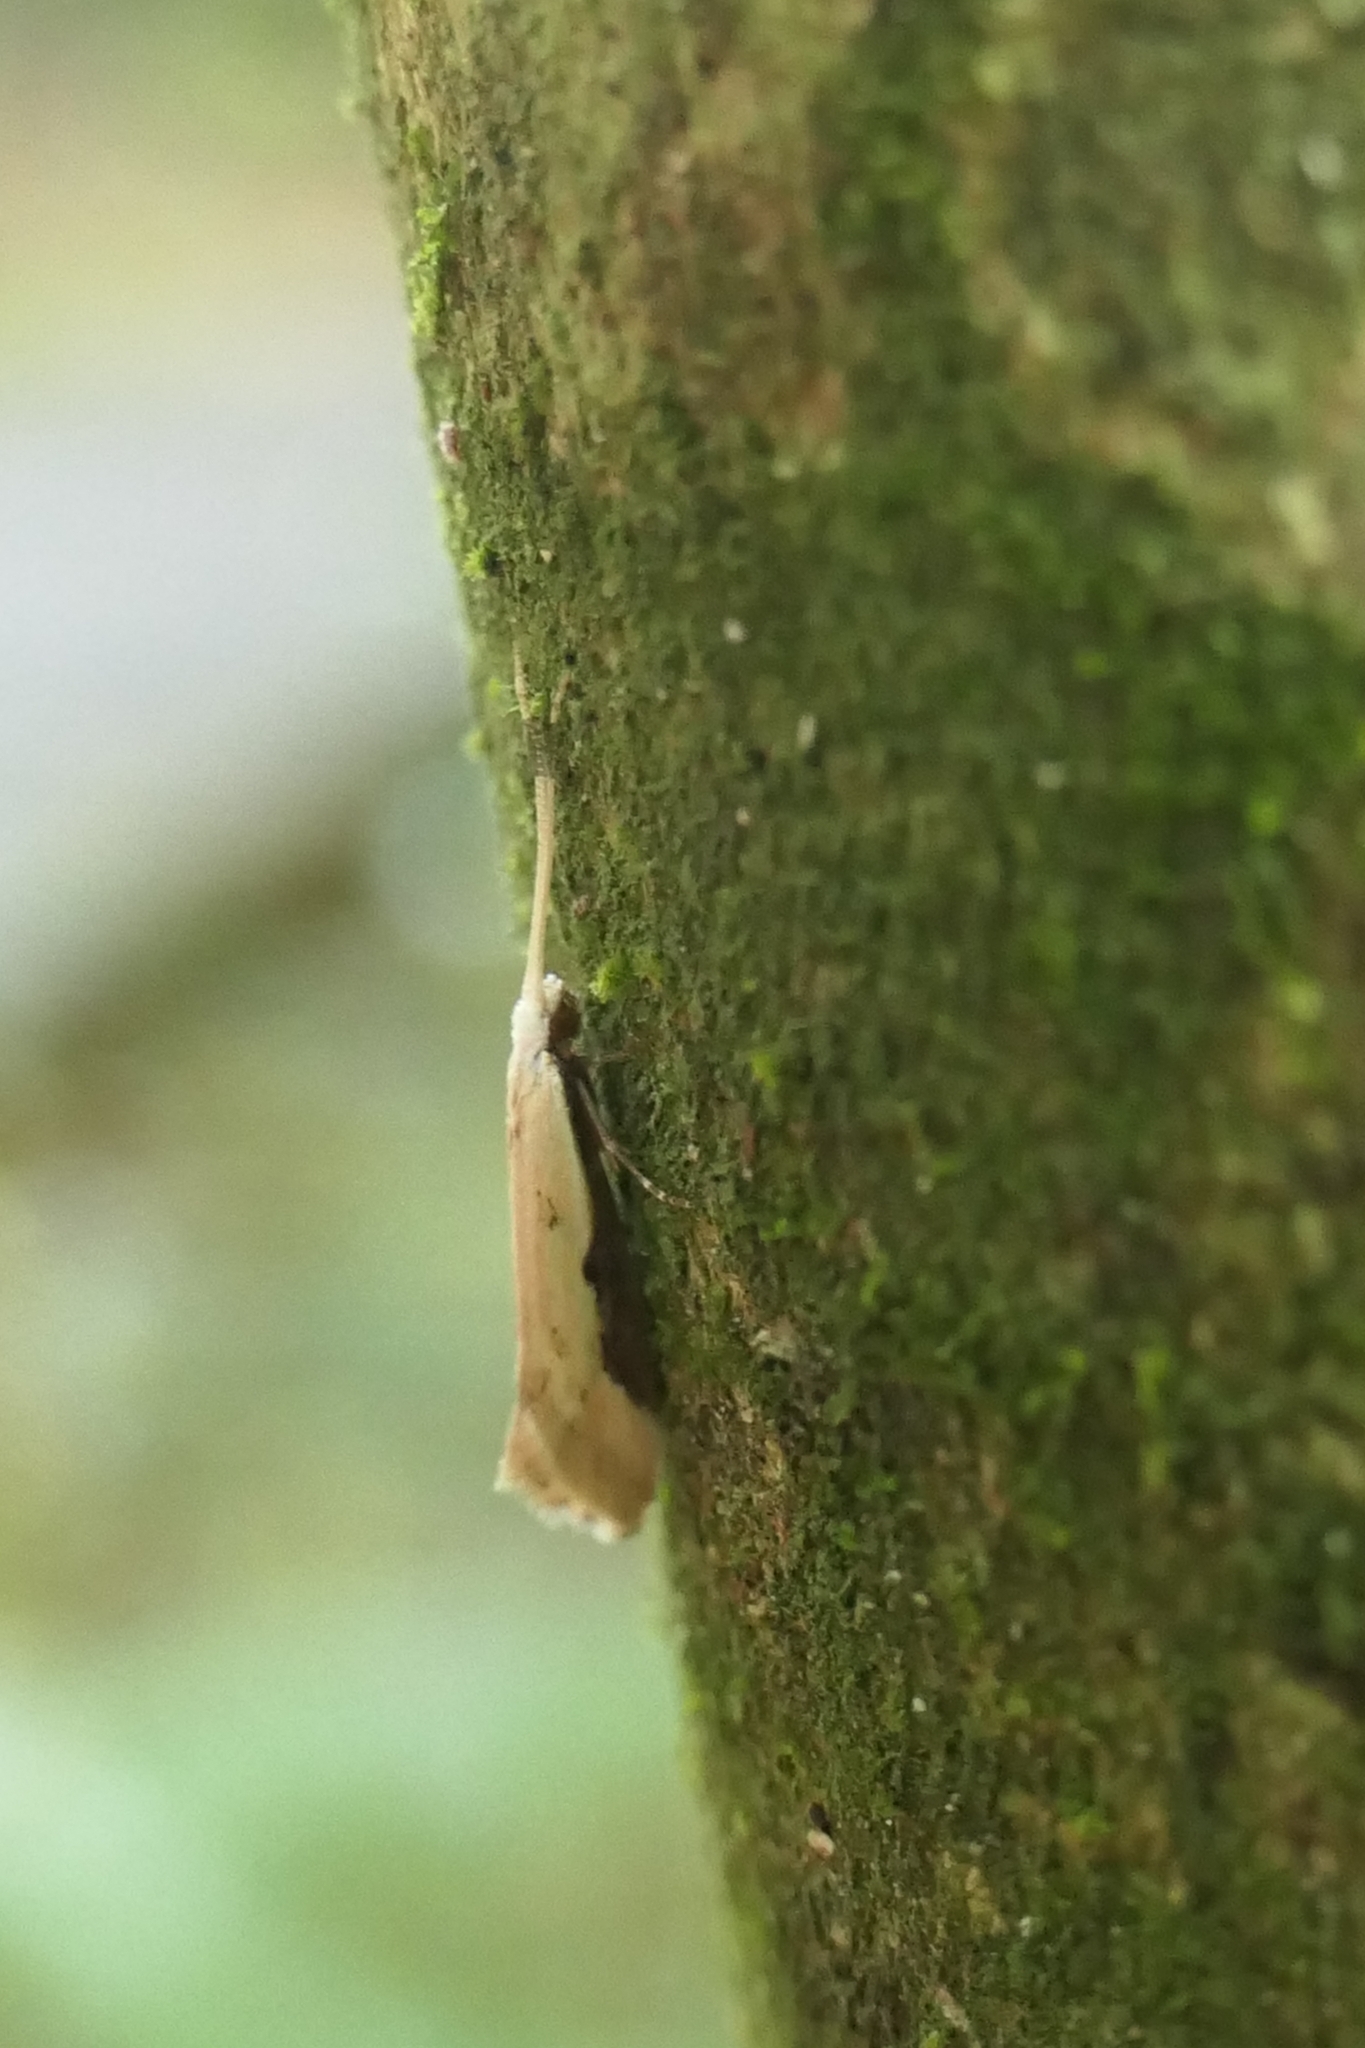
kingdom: Animalia
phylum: Arthropoda
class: Insecta
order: Lepidoptera
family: Tineidae
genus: Sagephora
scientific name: Sagephora phortegella
